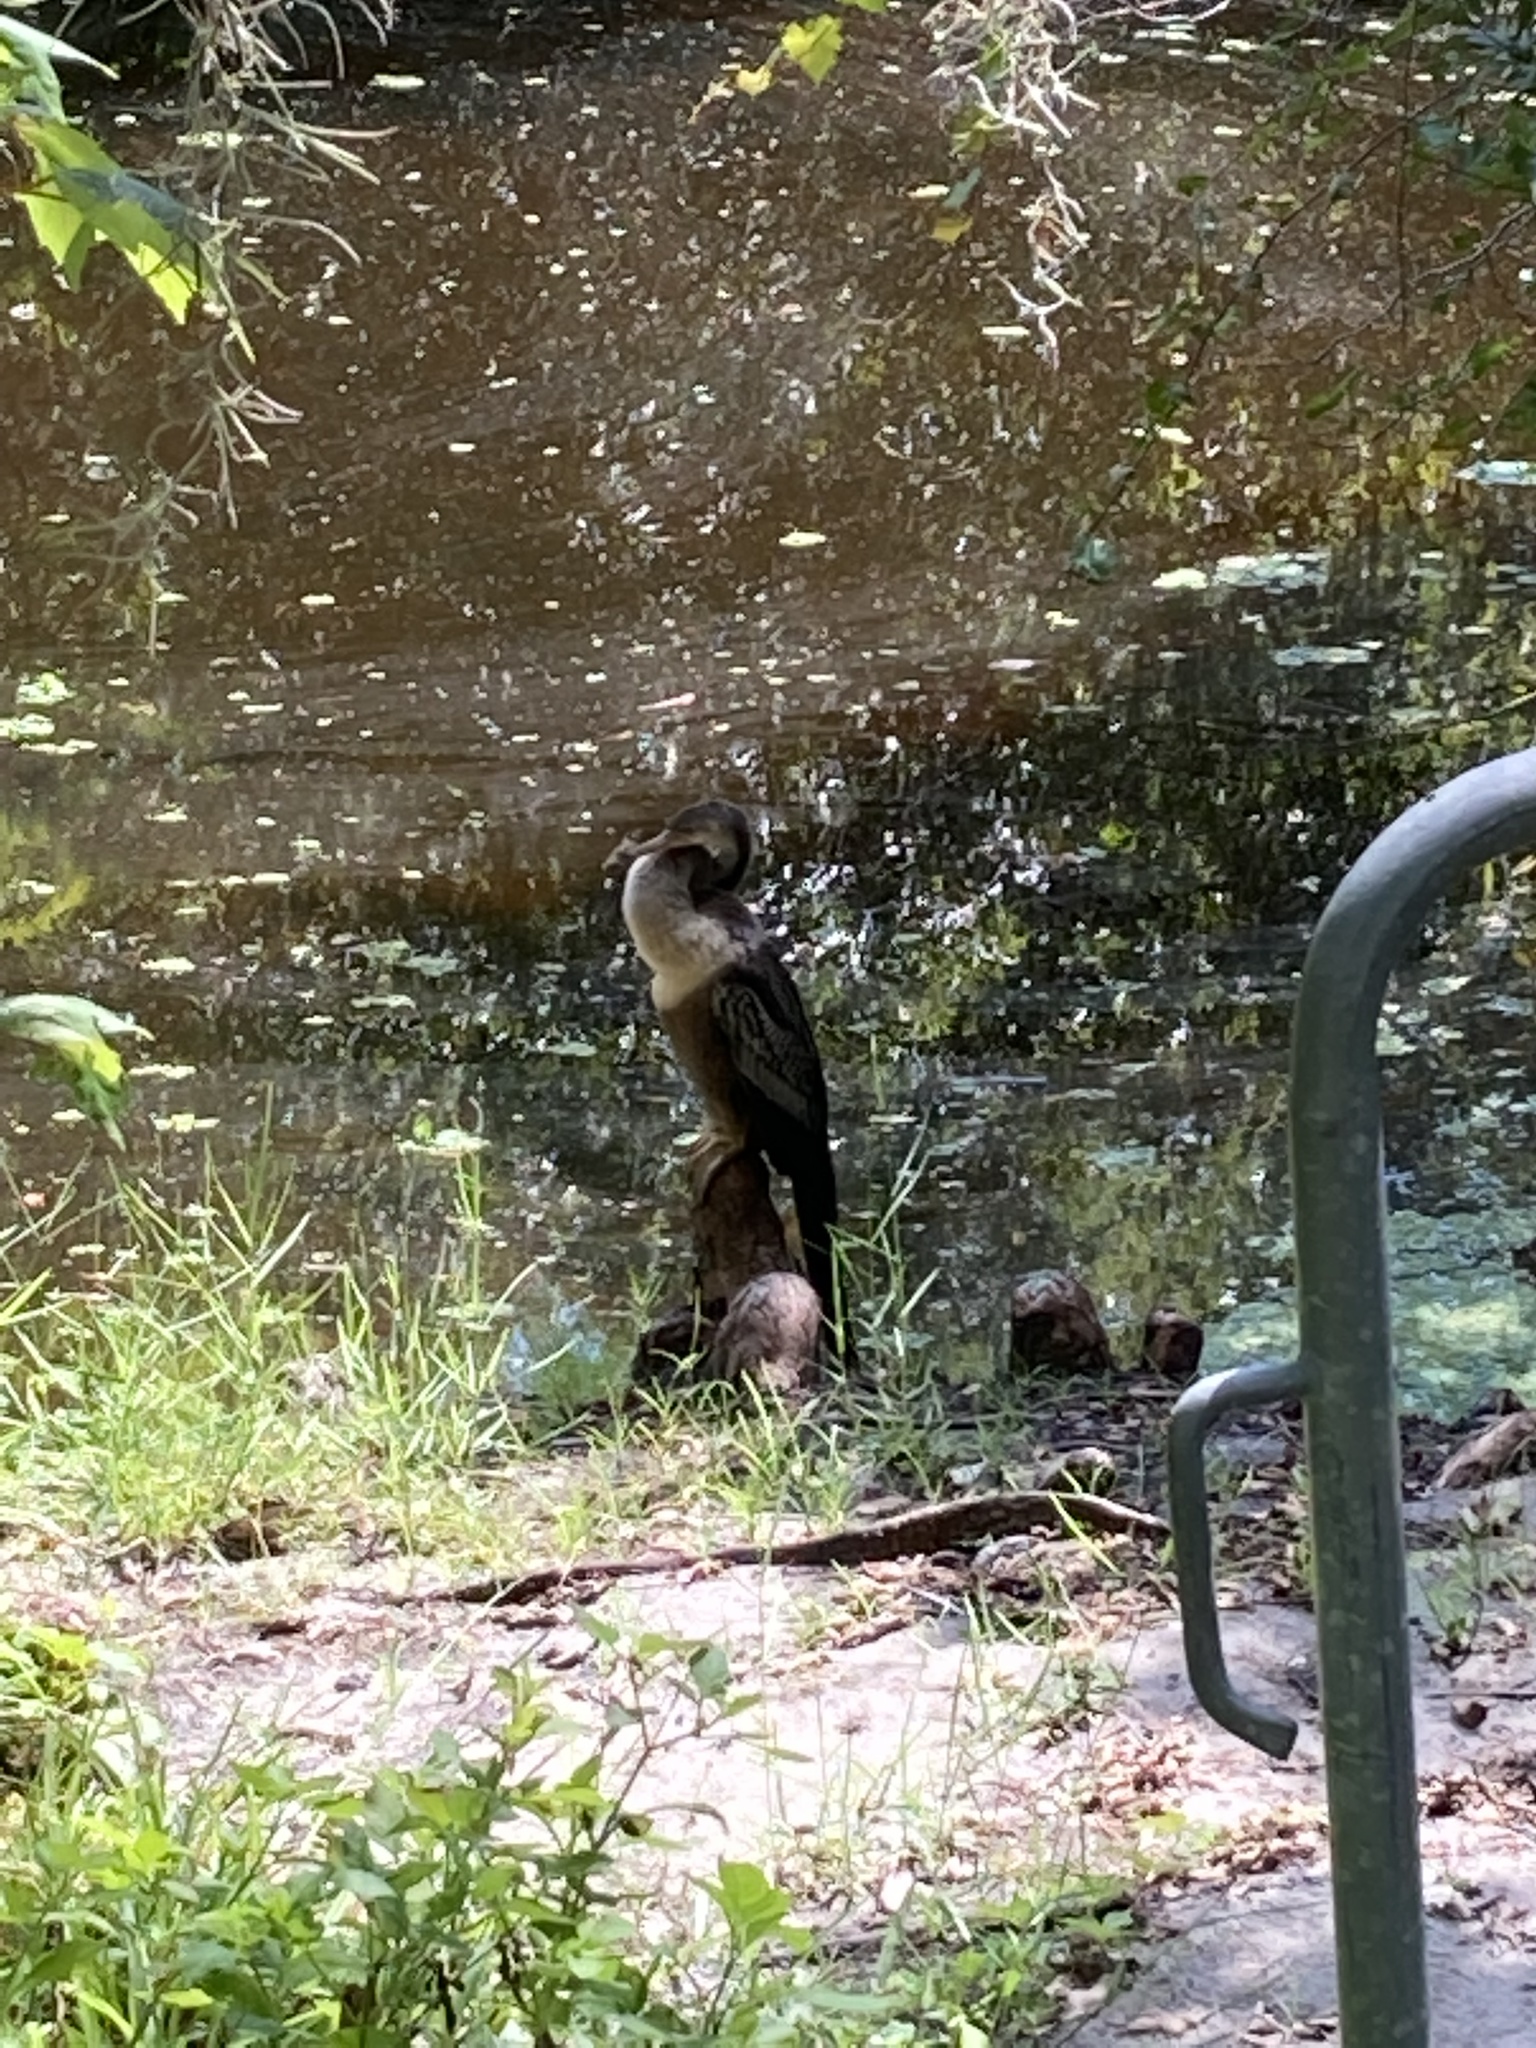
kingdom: Animalia
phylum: Chordata
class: Aves
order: Suliformes
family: Anhingidae
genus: Anhinga
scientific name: Anhinga anhinga
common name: Anhinga
